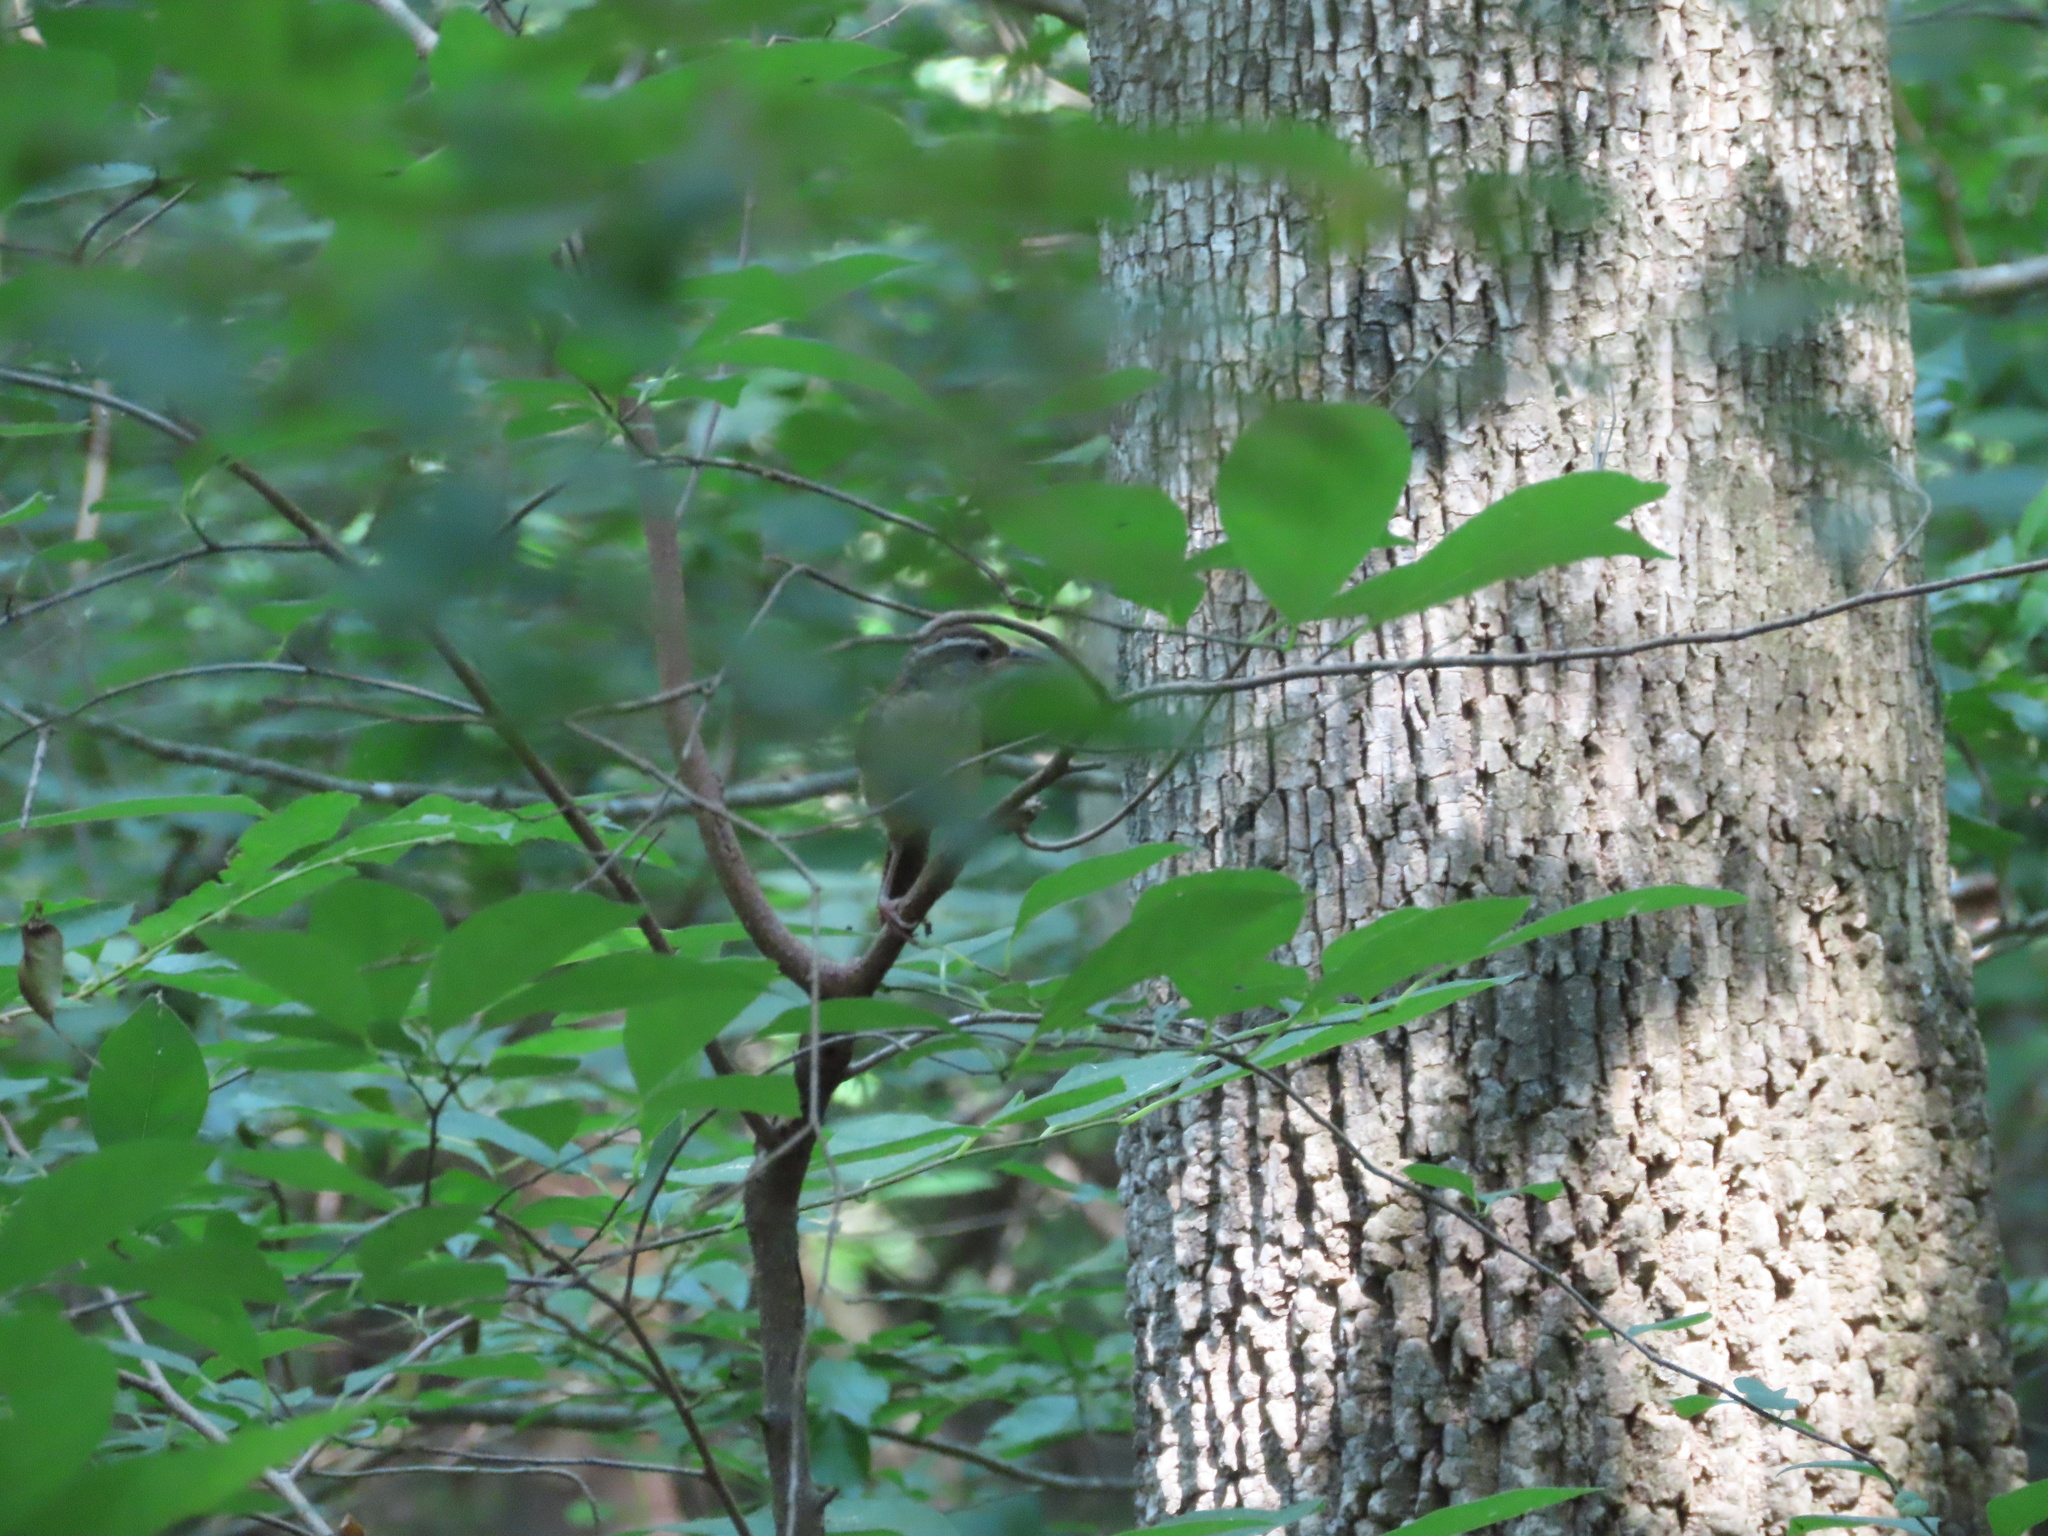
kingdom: Animalia
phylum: Chordata
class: Aves
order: Passeriformes
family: Troglodytidae
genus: Thryothorus
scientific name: Thryothorus ludovicianus
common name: Carolina wren
